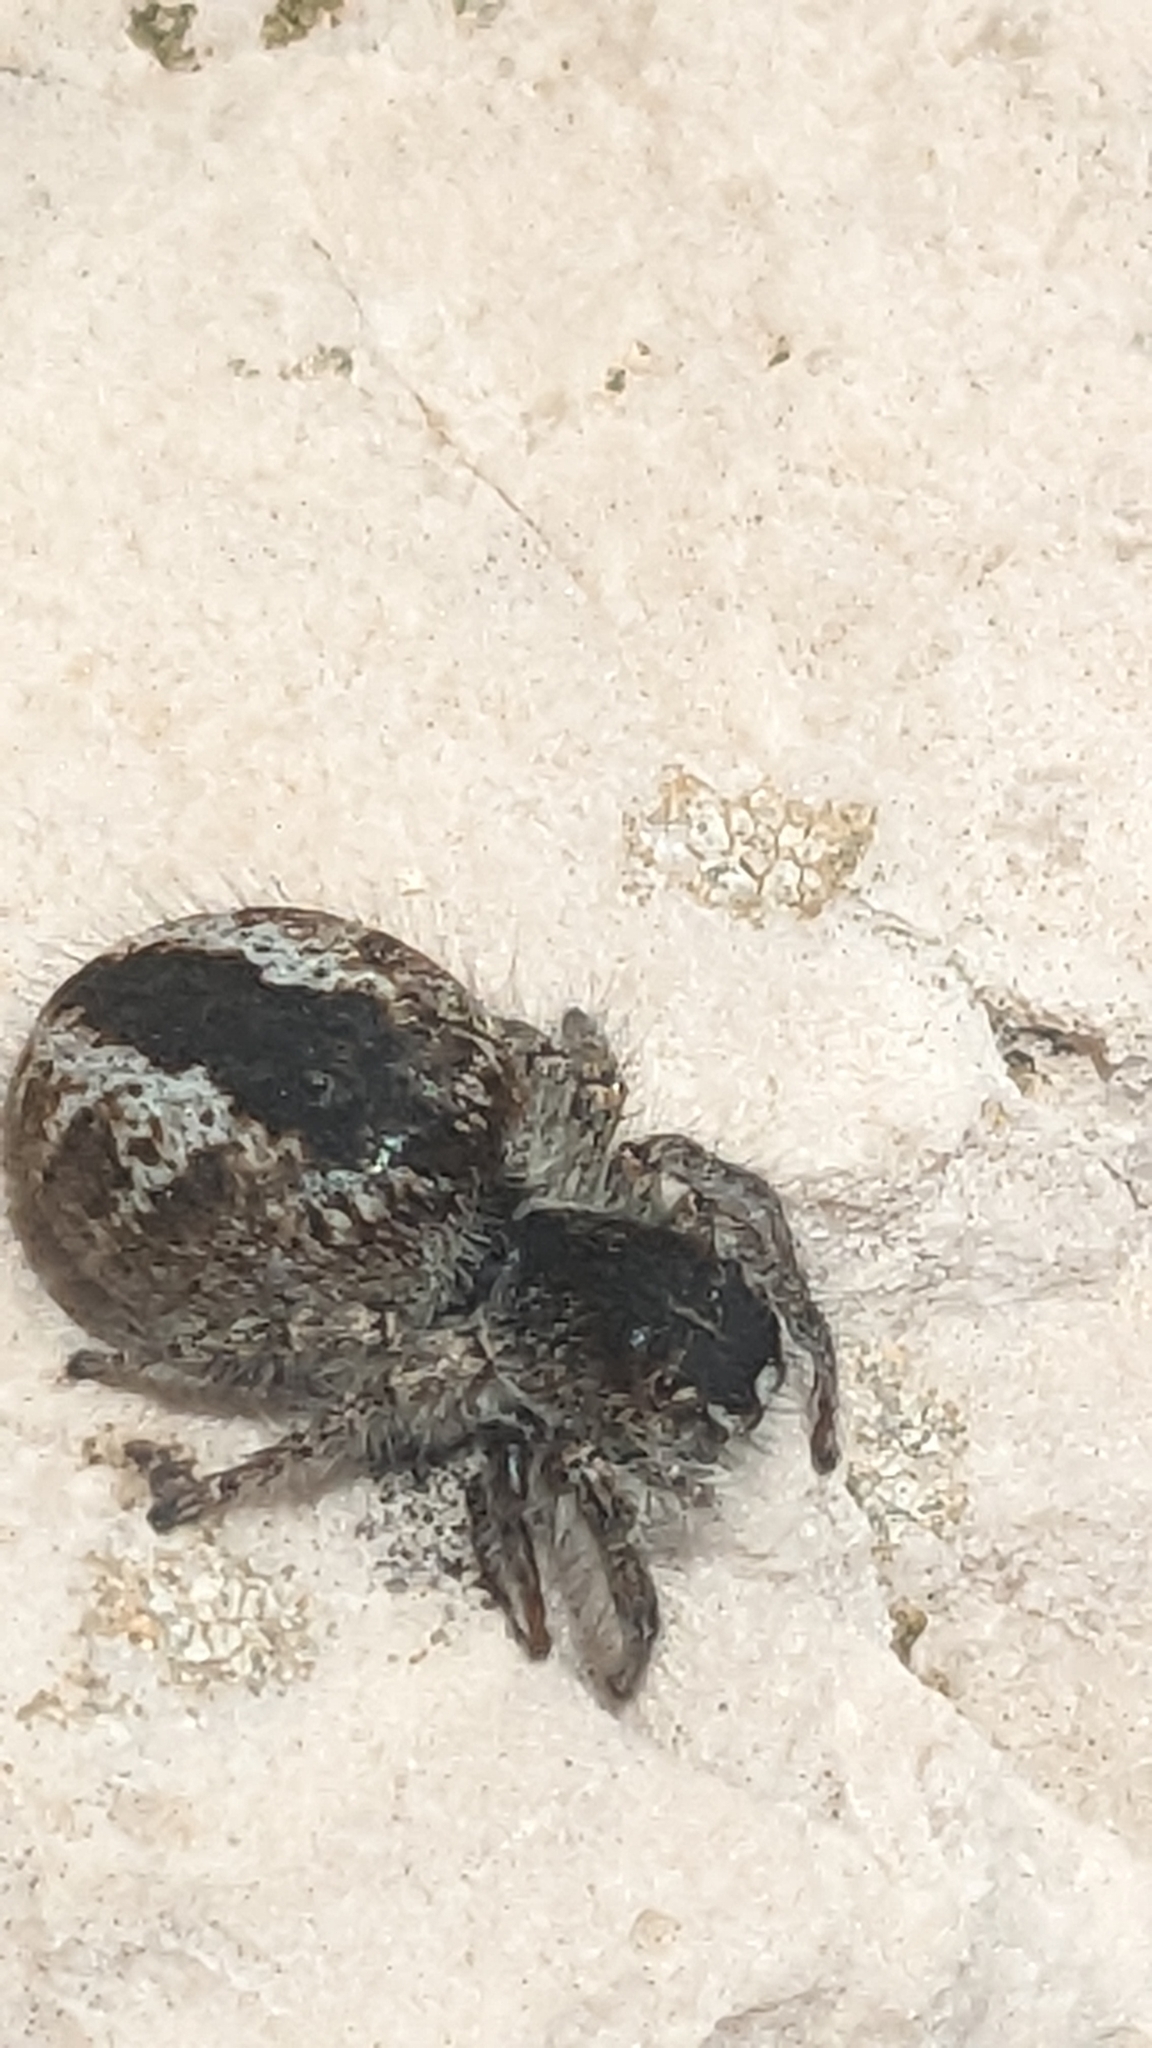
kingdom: Animalia
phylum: Arthropoda
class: Arachnida
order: Araneae
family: Salticidae
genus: Philaeus
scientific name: Philaeus chrysops
